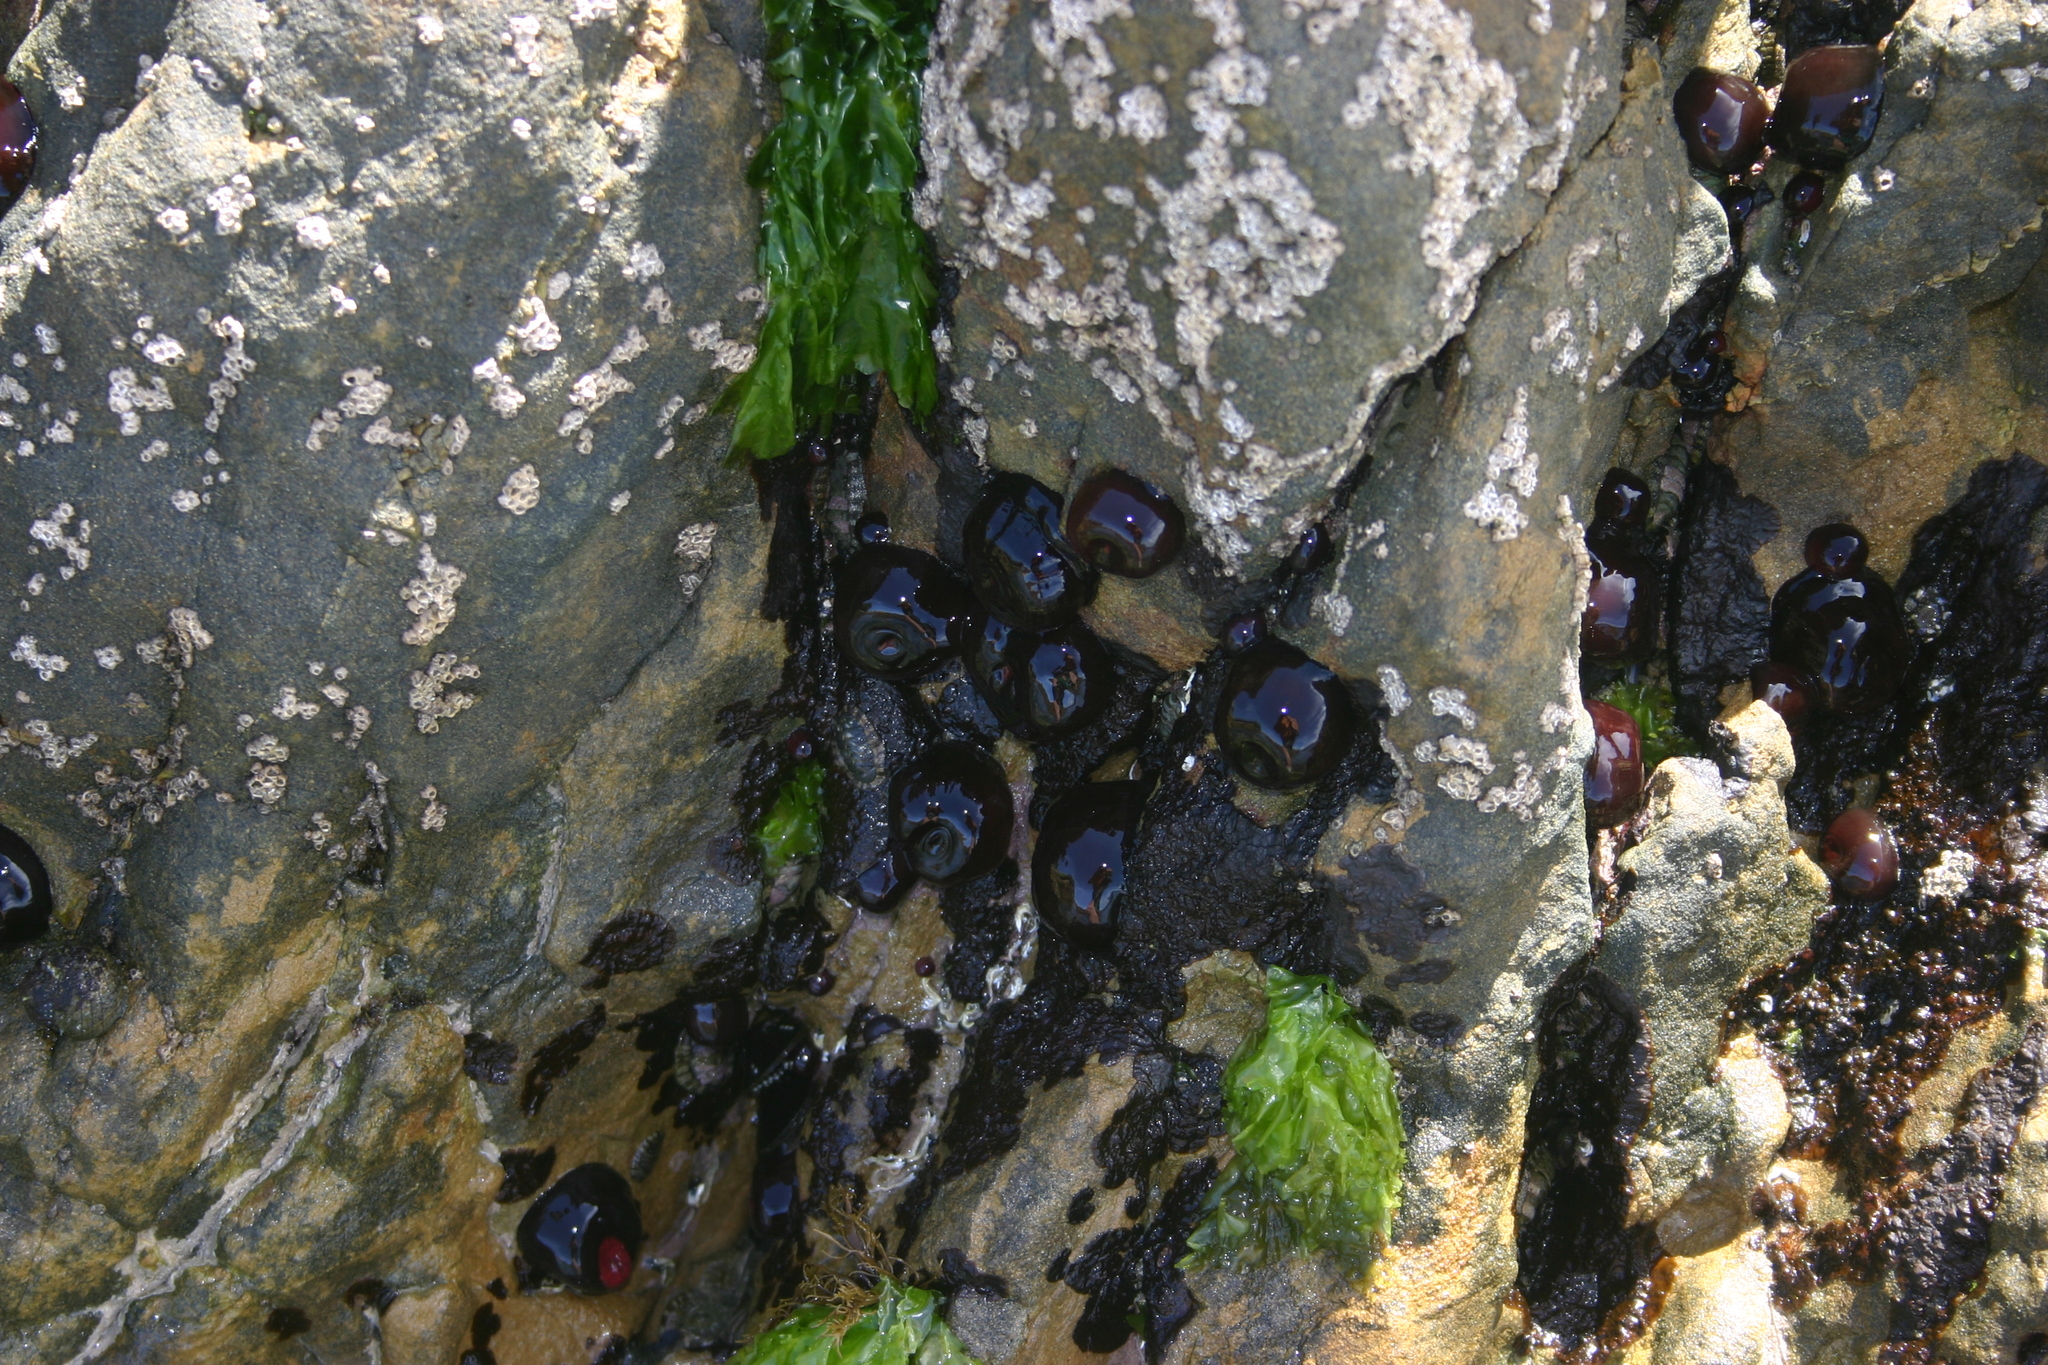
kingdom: Animalia
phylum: Cnidaria
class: Anthozoa
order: Actiniaria
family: Actiniidae
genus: Actinia
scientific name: Actinia tenebrosa
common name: Waratah anemone
